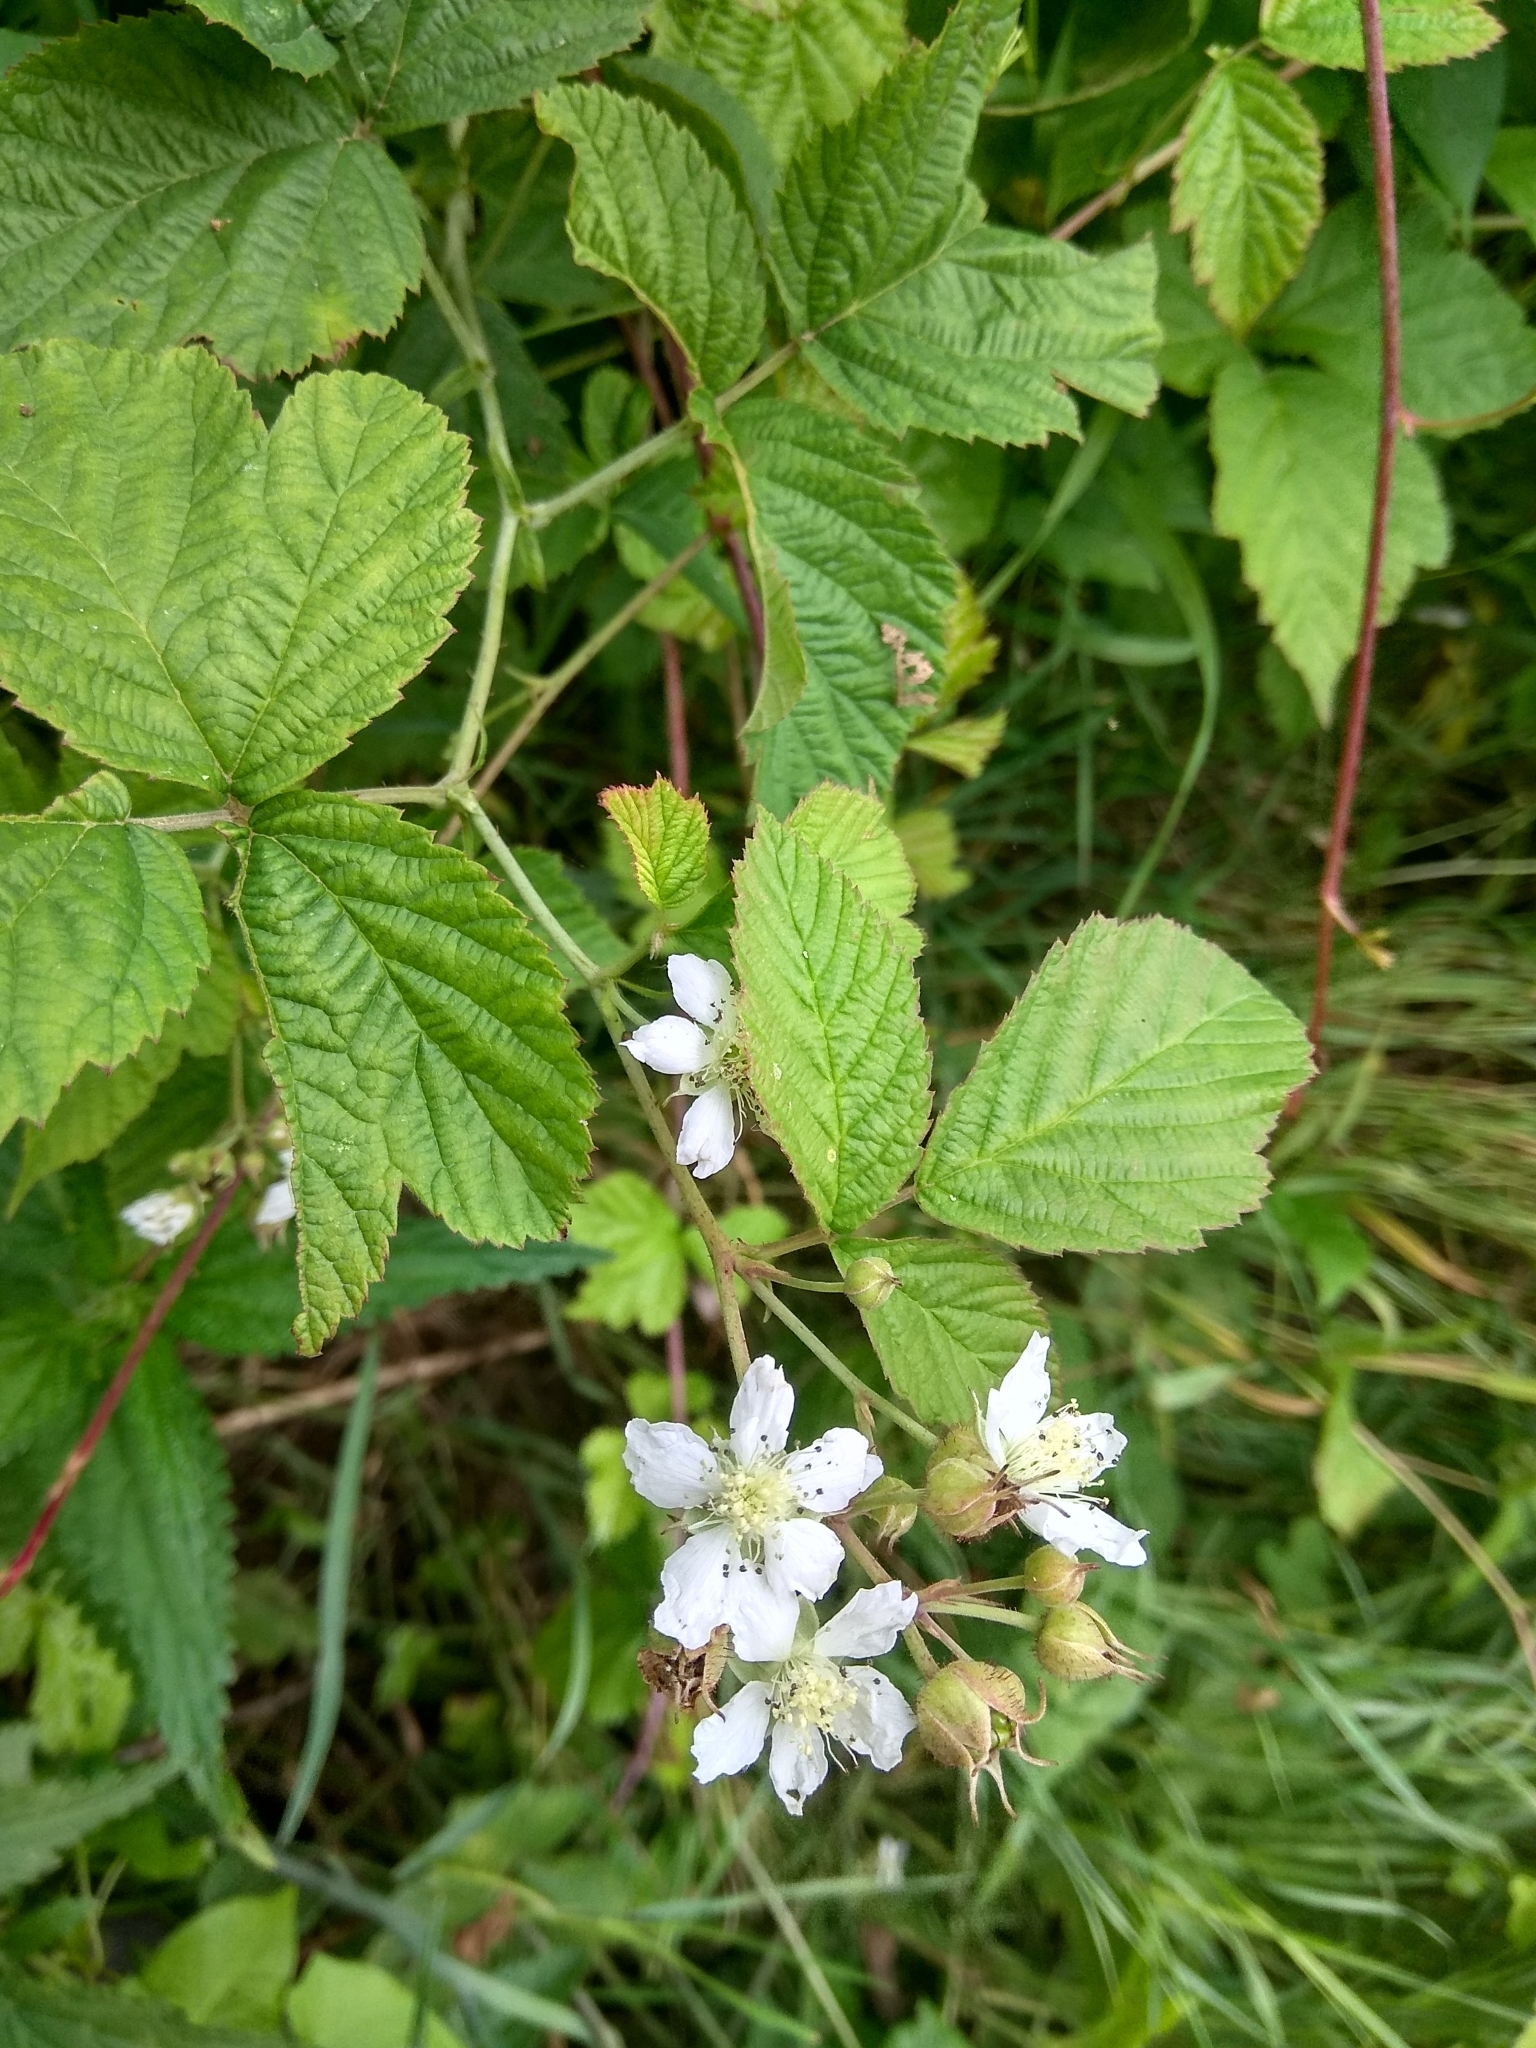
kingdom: Plantae
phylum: Tracheophyta
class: Magnoliopsida
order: Rosales
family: Rosaceae
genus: Rubus
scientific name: Rubus caesius
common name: Dewberry
